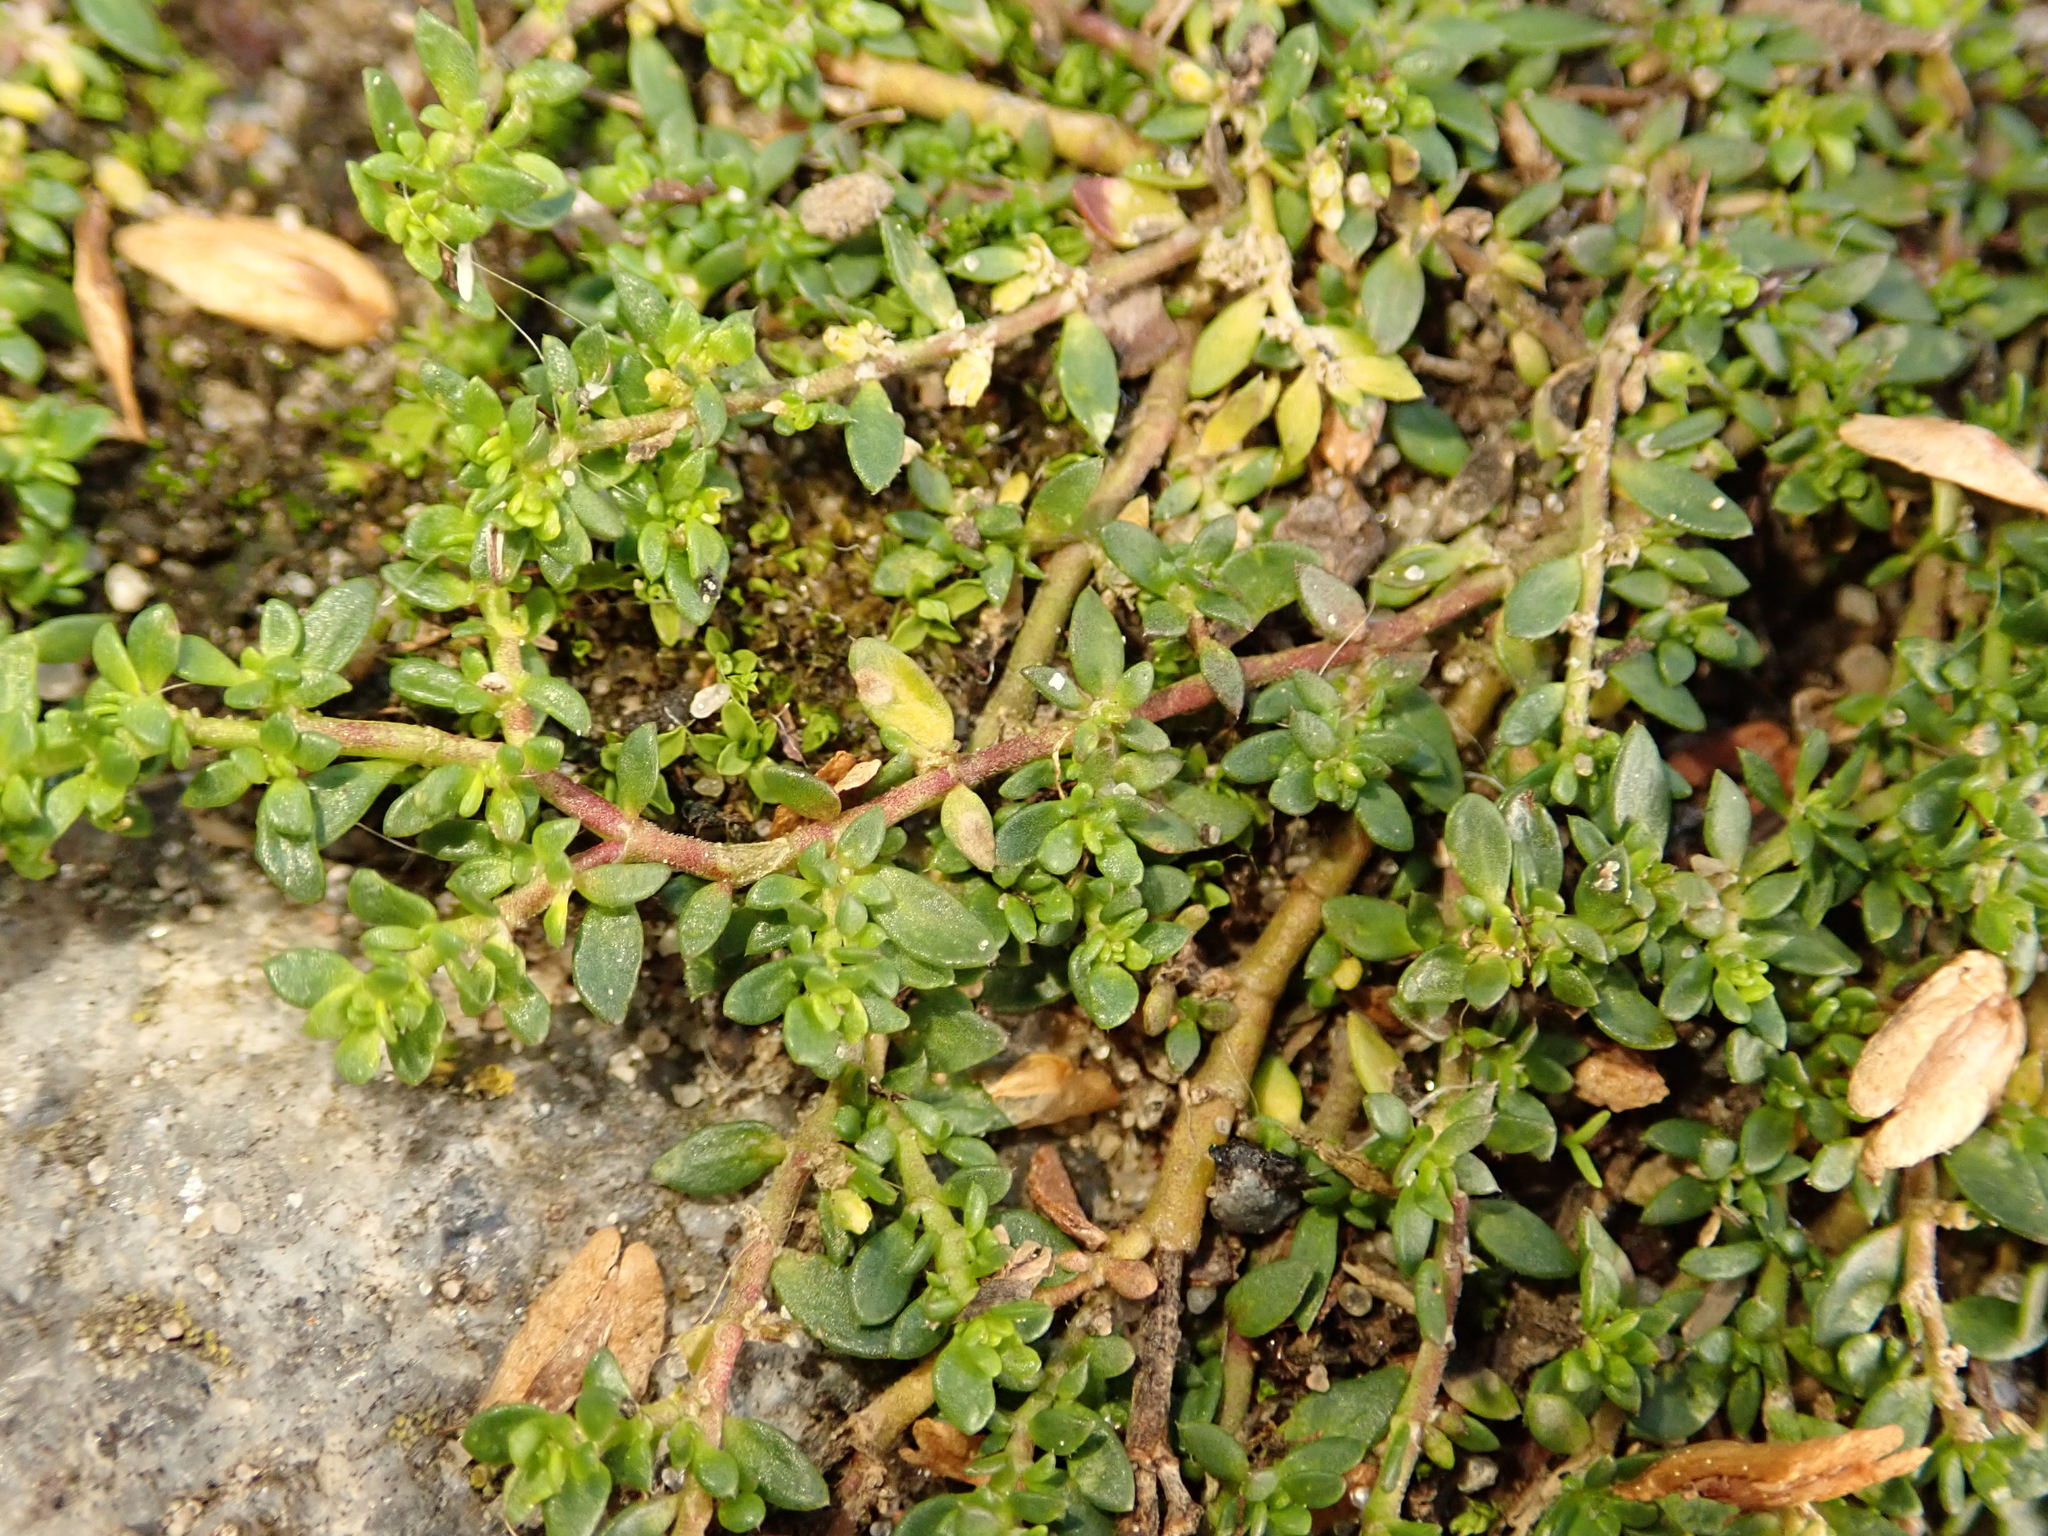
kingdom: Plantae
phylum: Tracheophyta
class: Magnoliopsida
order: Caryophyllales
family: Caryophyllaceae
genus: Herniaria
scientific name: Herniaria glabra
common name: Smooth rupturewort
